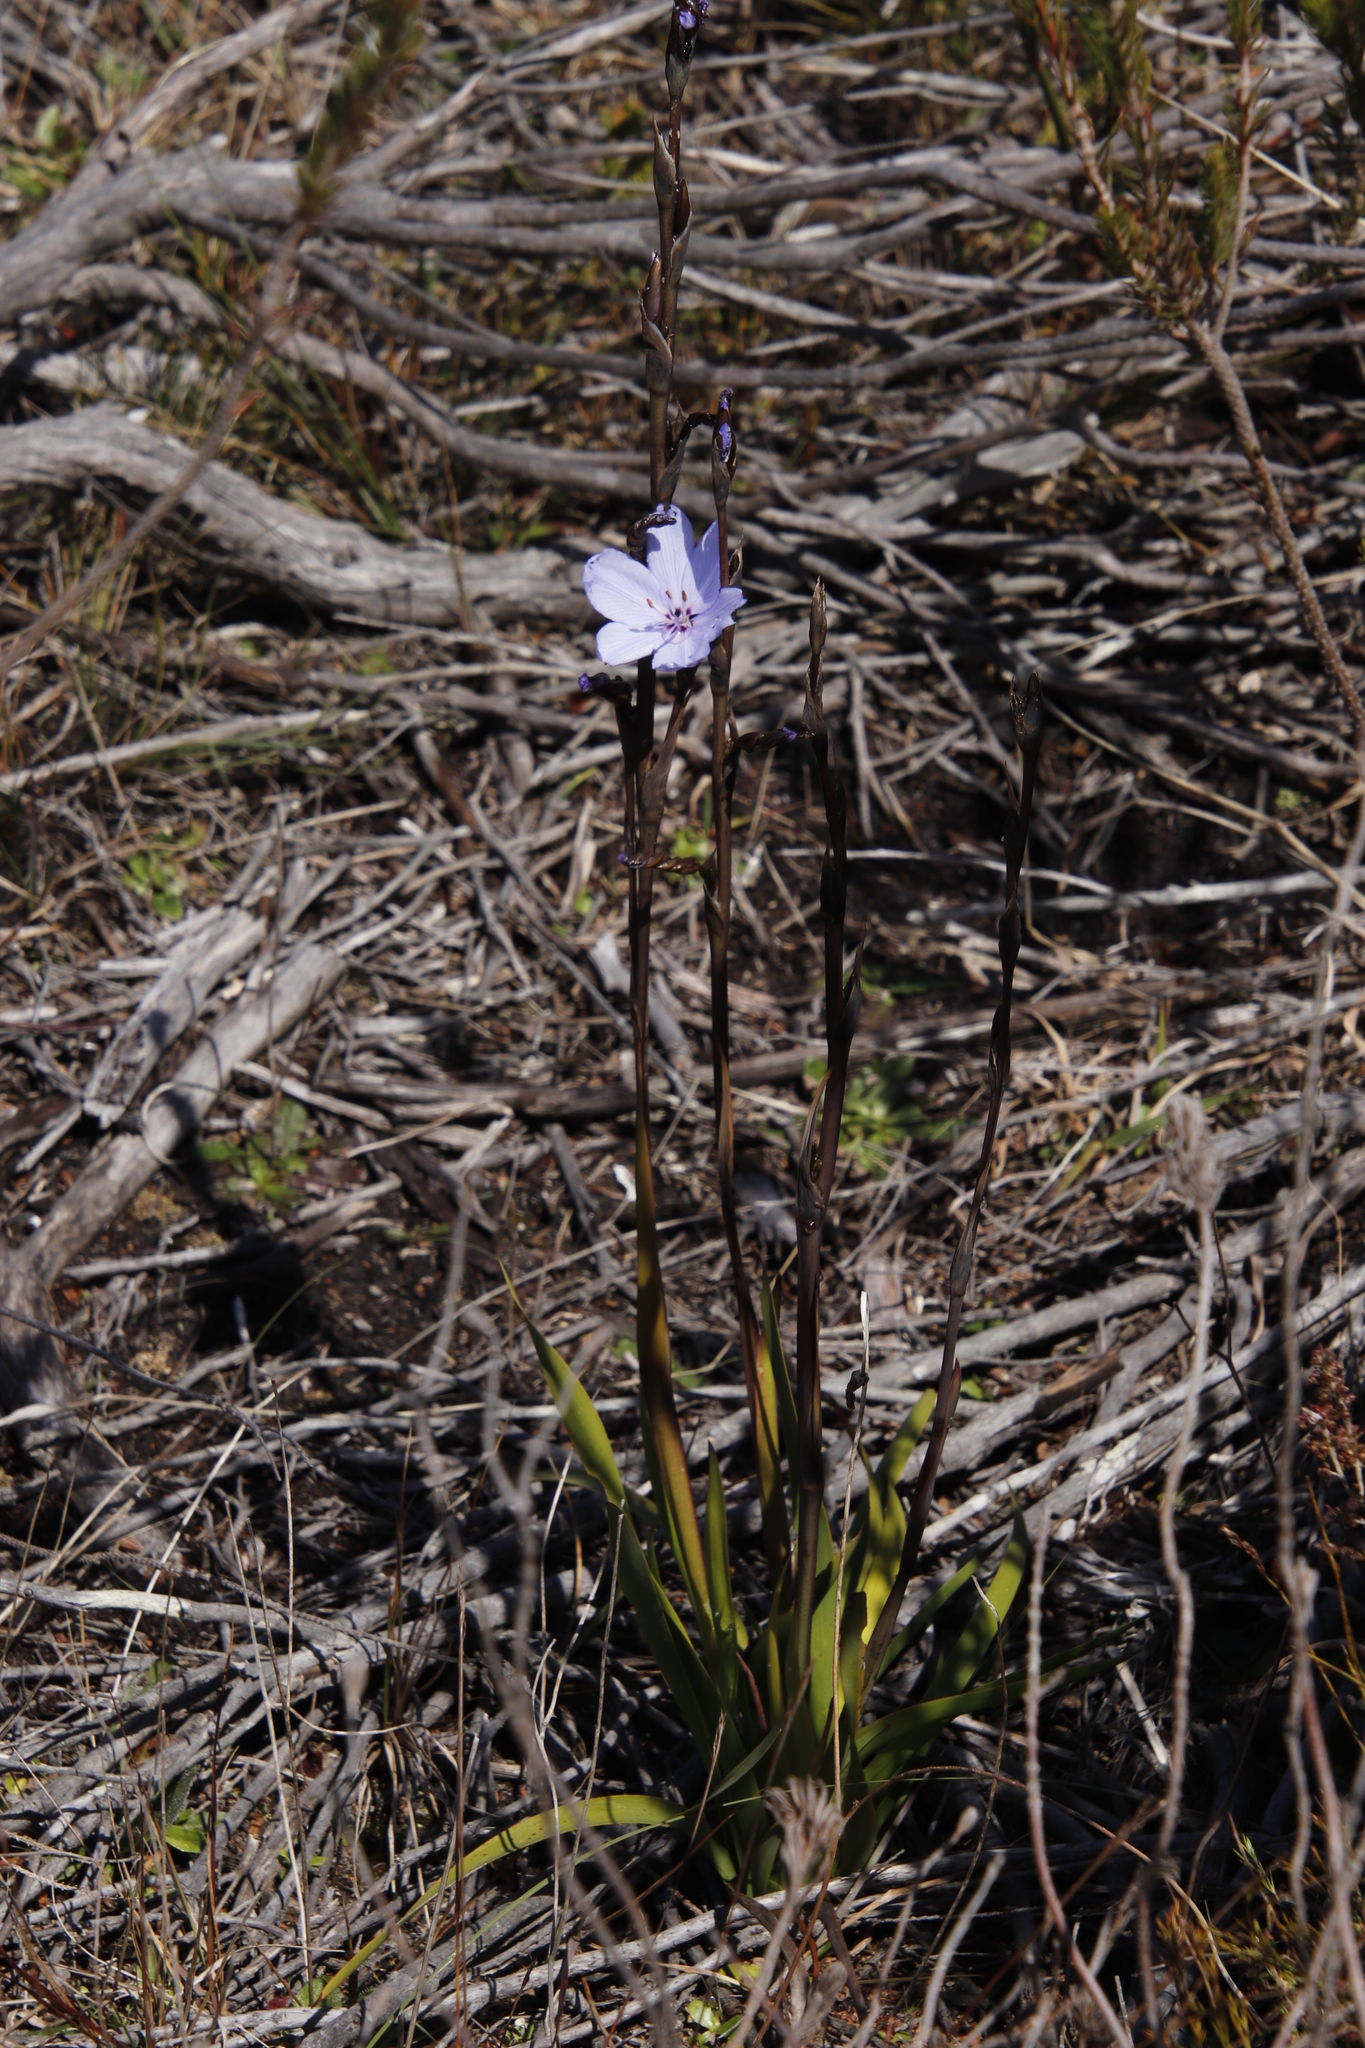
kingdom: Plantae
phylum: Tracheophyta
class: Liliopsida
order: Asparagales
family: Iridaceae
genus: Aristea
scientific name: Aristea spiralis
